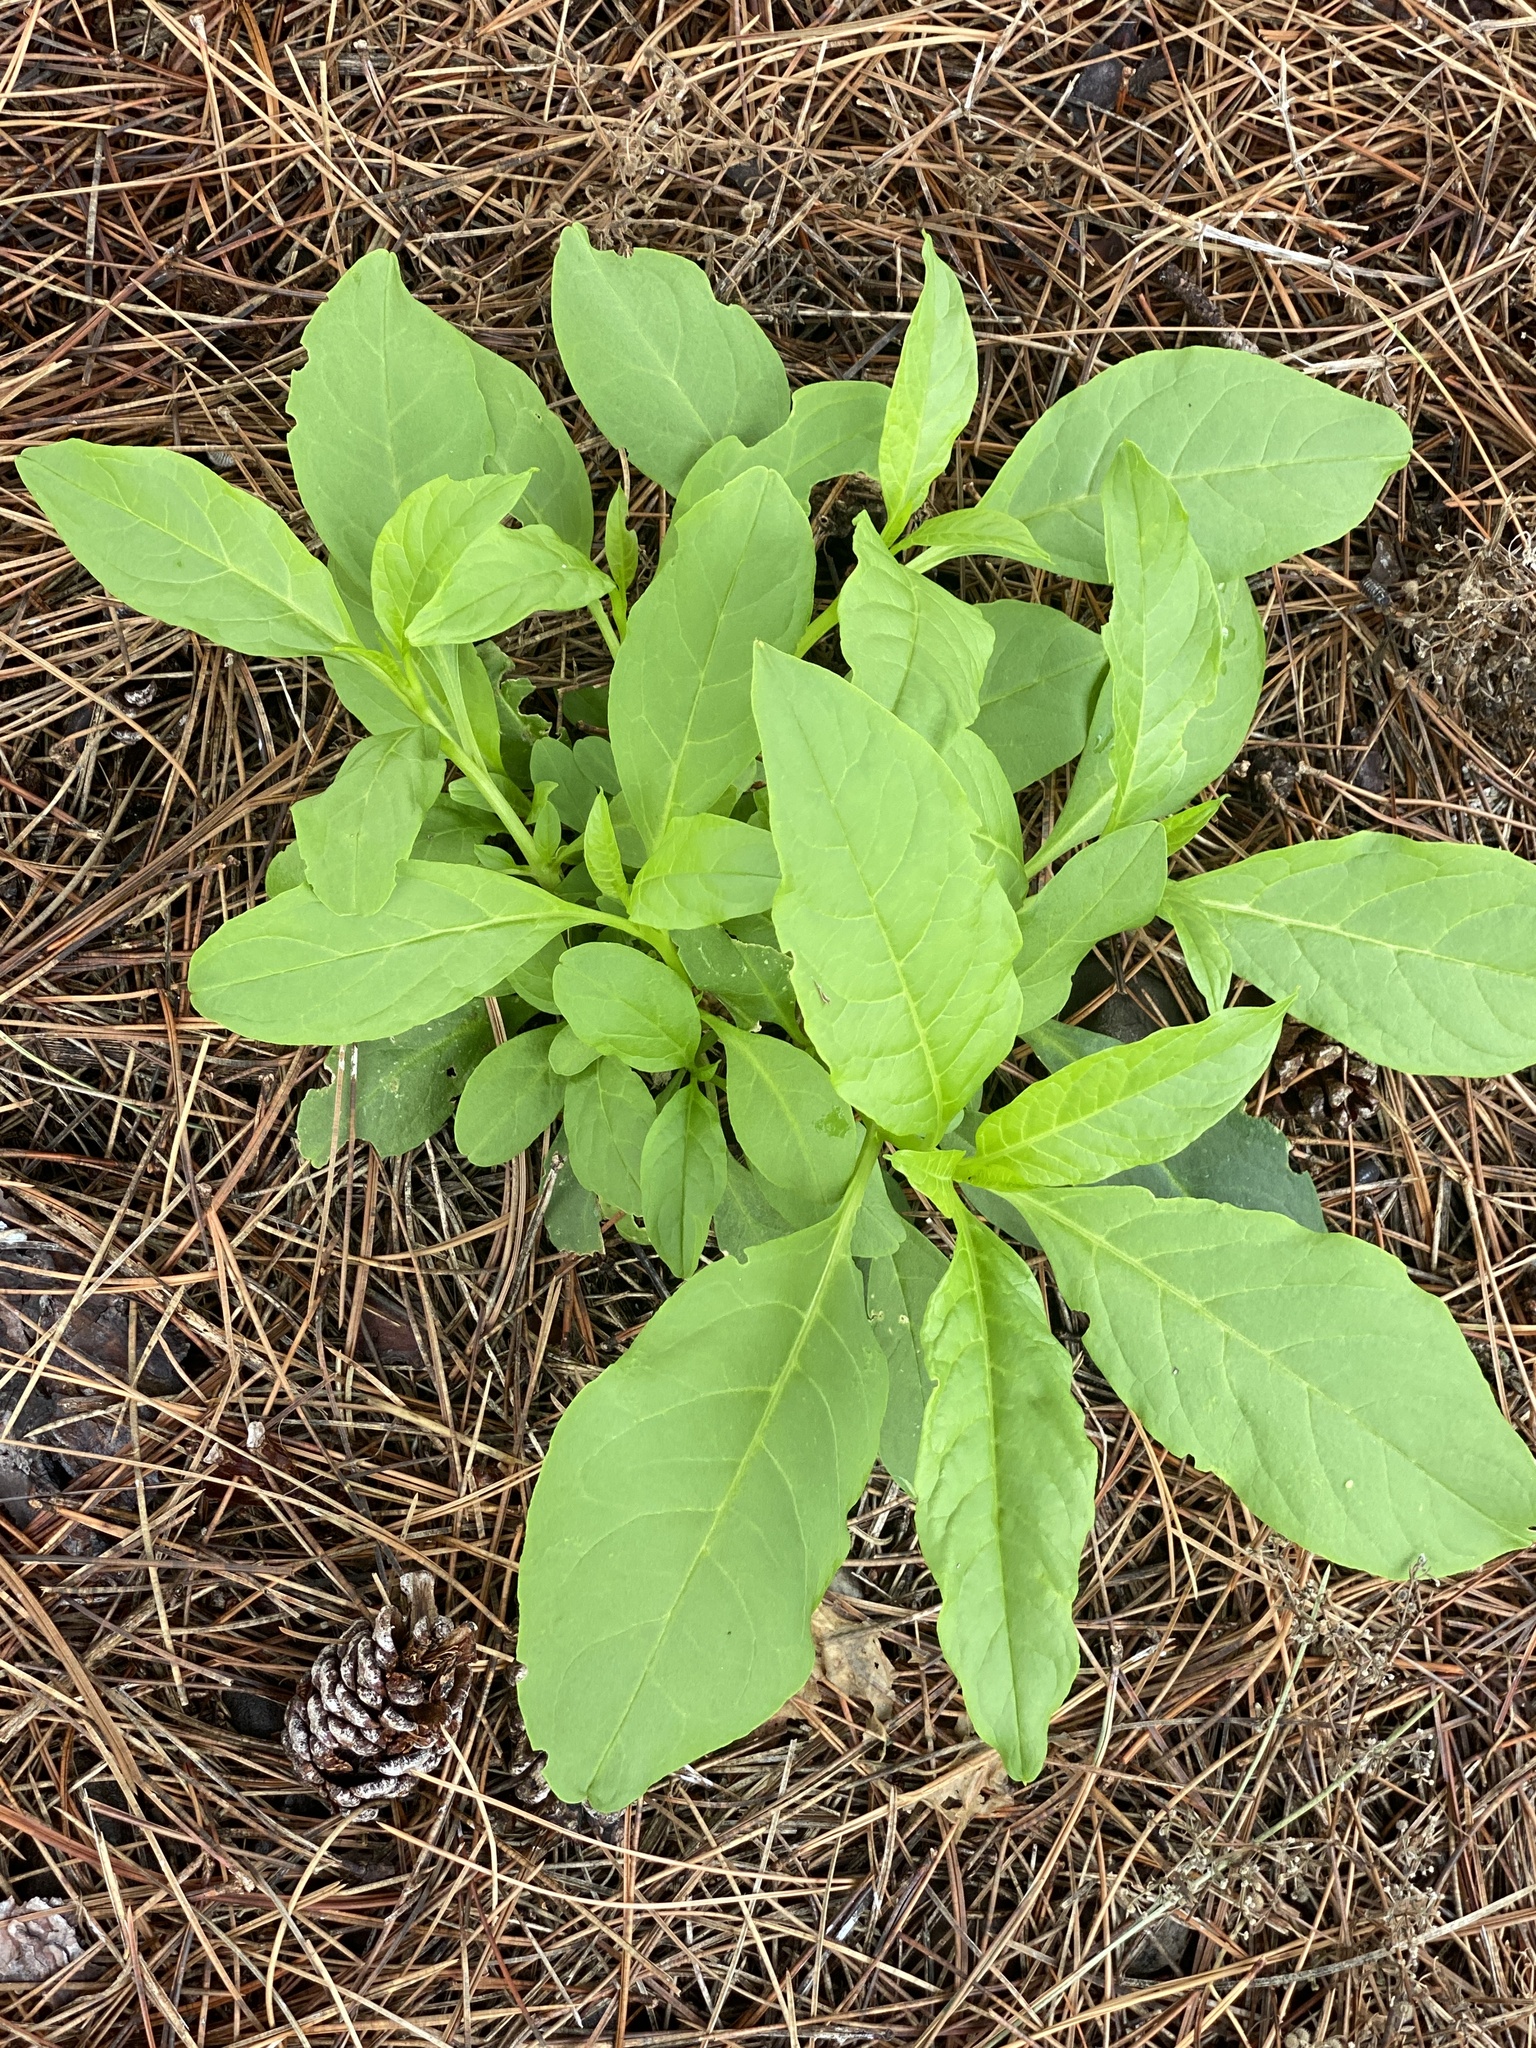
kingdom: Plantae
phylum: Tracheophyta
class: Magnoliopsida
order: Caryophyllales
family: Phytolaccaceae
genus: Phytolacca
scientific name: Phytolacca americana
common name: American pokeweed
